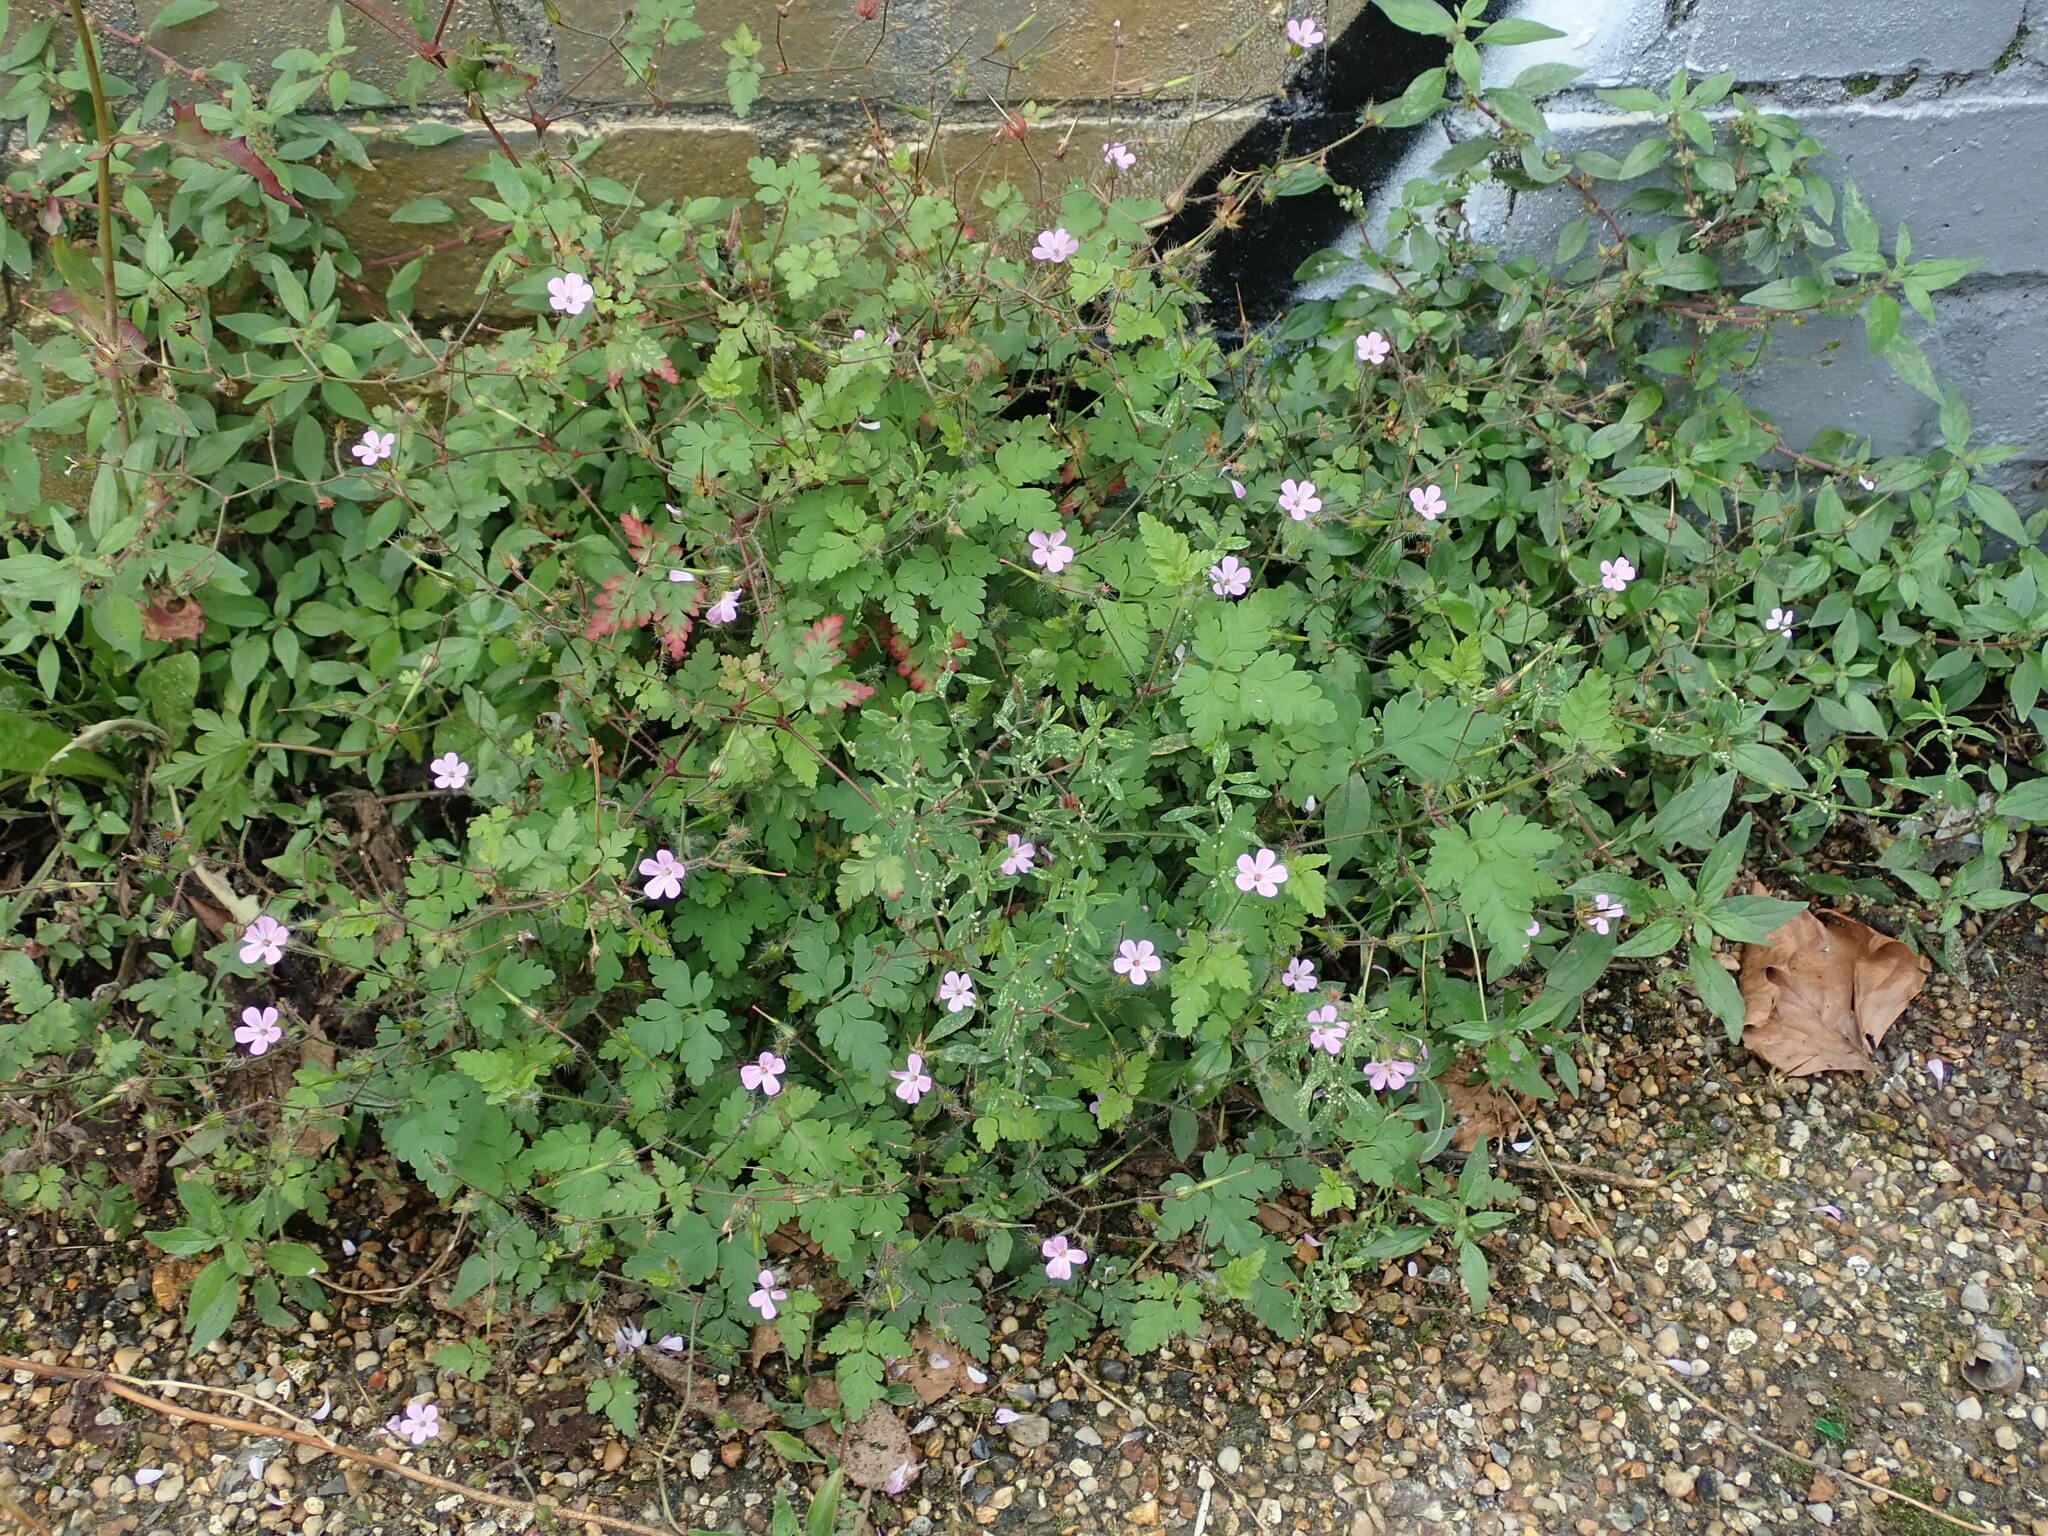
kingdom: Plantae
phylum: Tracheophyta
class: Magnoliopsida
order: Geraniales
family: Geraniaceae
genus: Geranium
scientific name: Geranium robertianum
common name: Herb-robert
